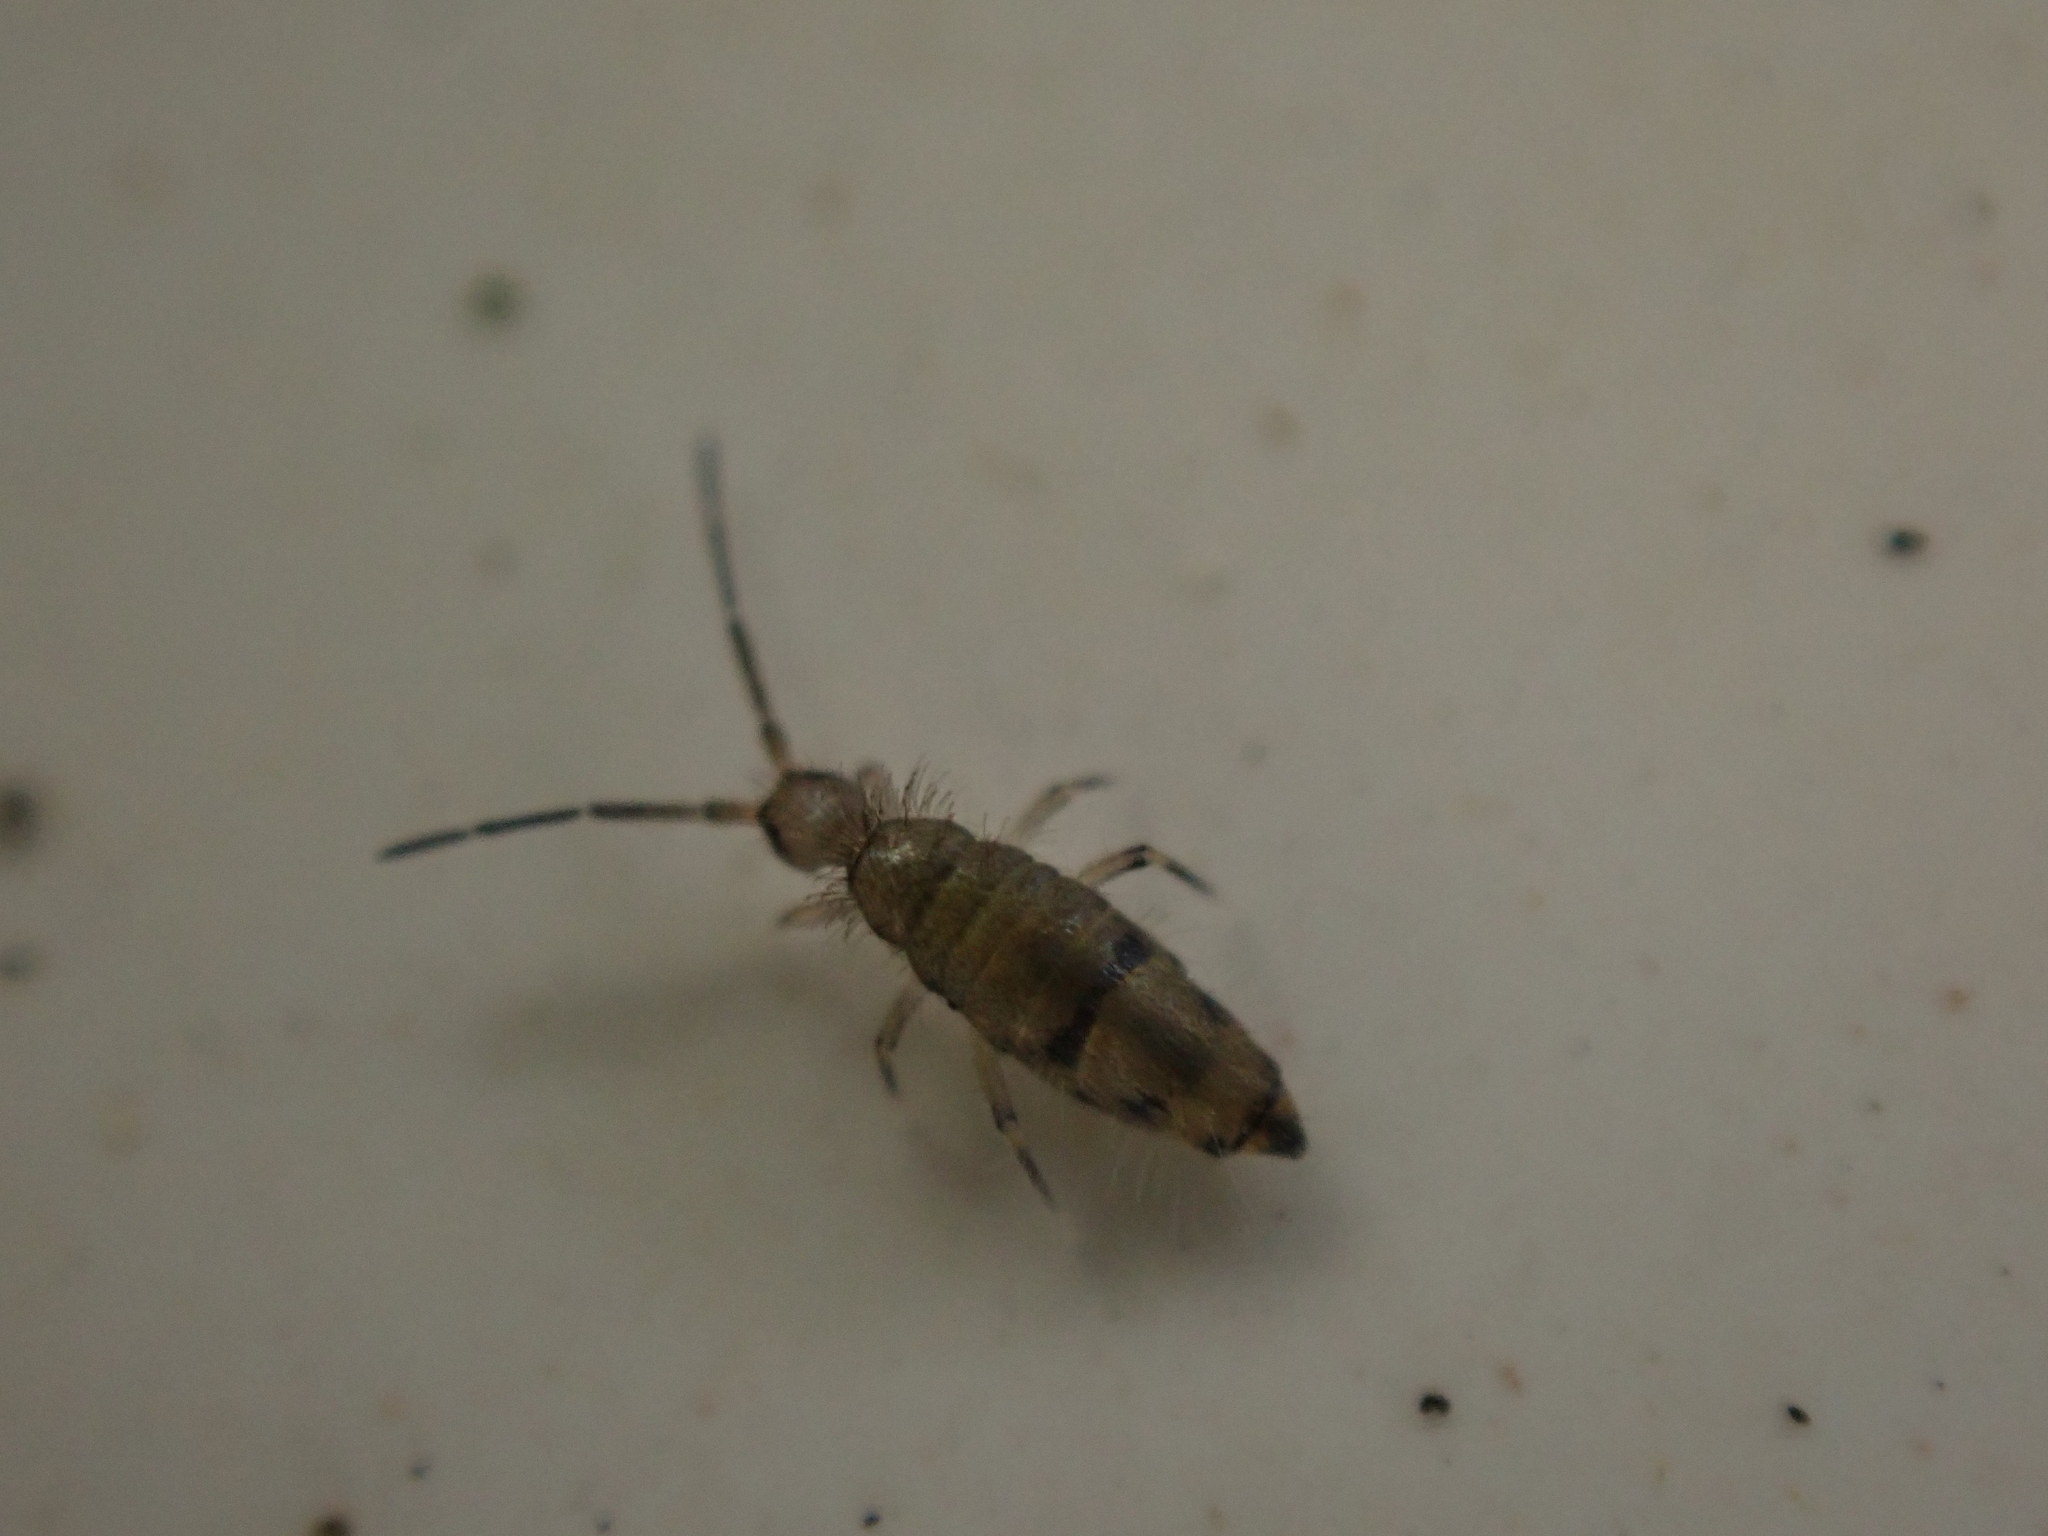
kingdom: Animalia
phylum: Arthropoda
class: Collembola
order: Entomobryomorpha
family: Entomobryidae
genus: Willowsia
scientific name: Willowsia nigromaculata
